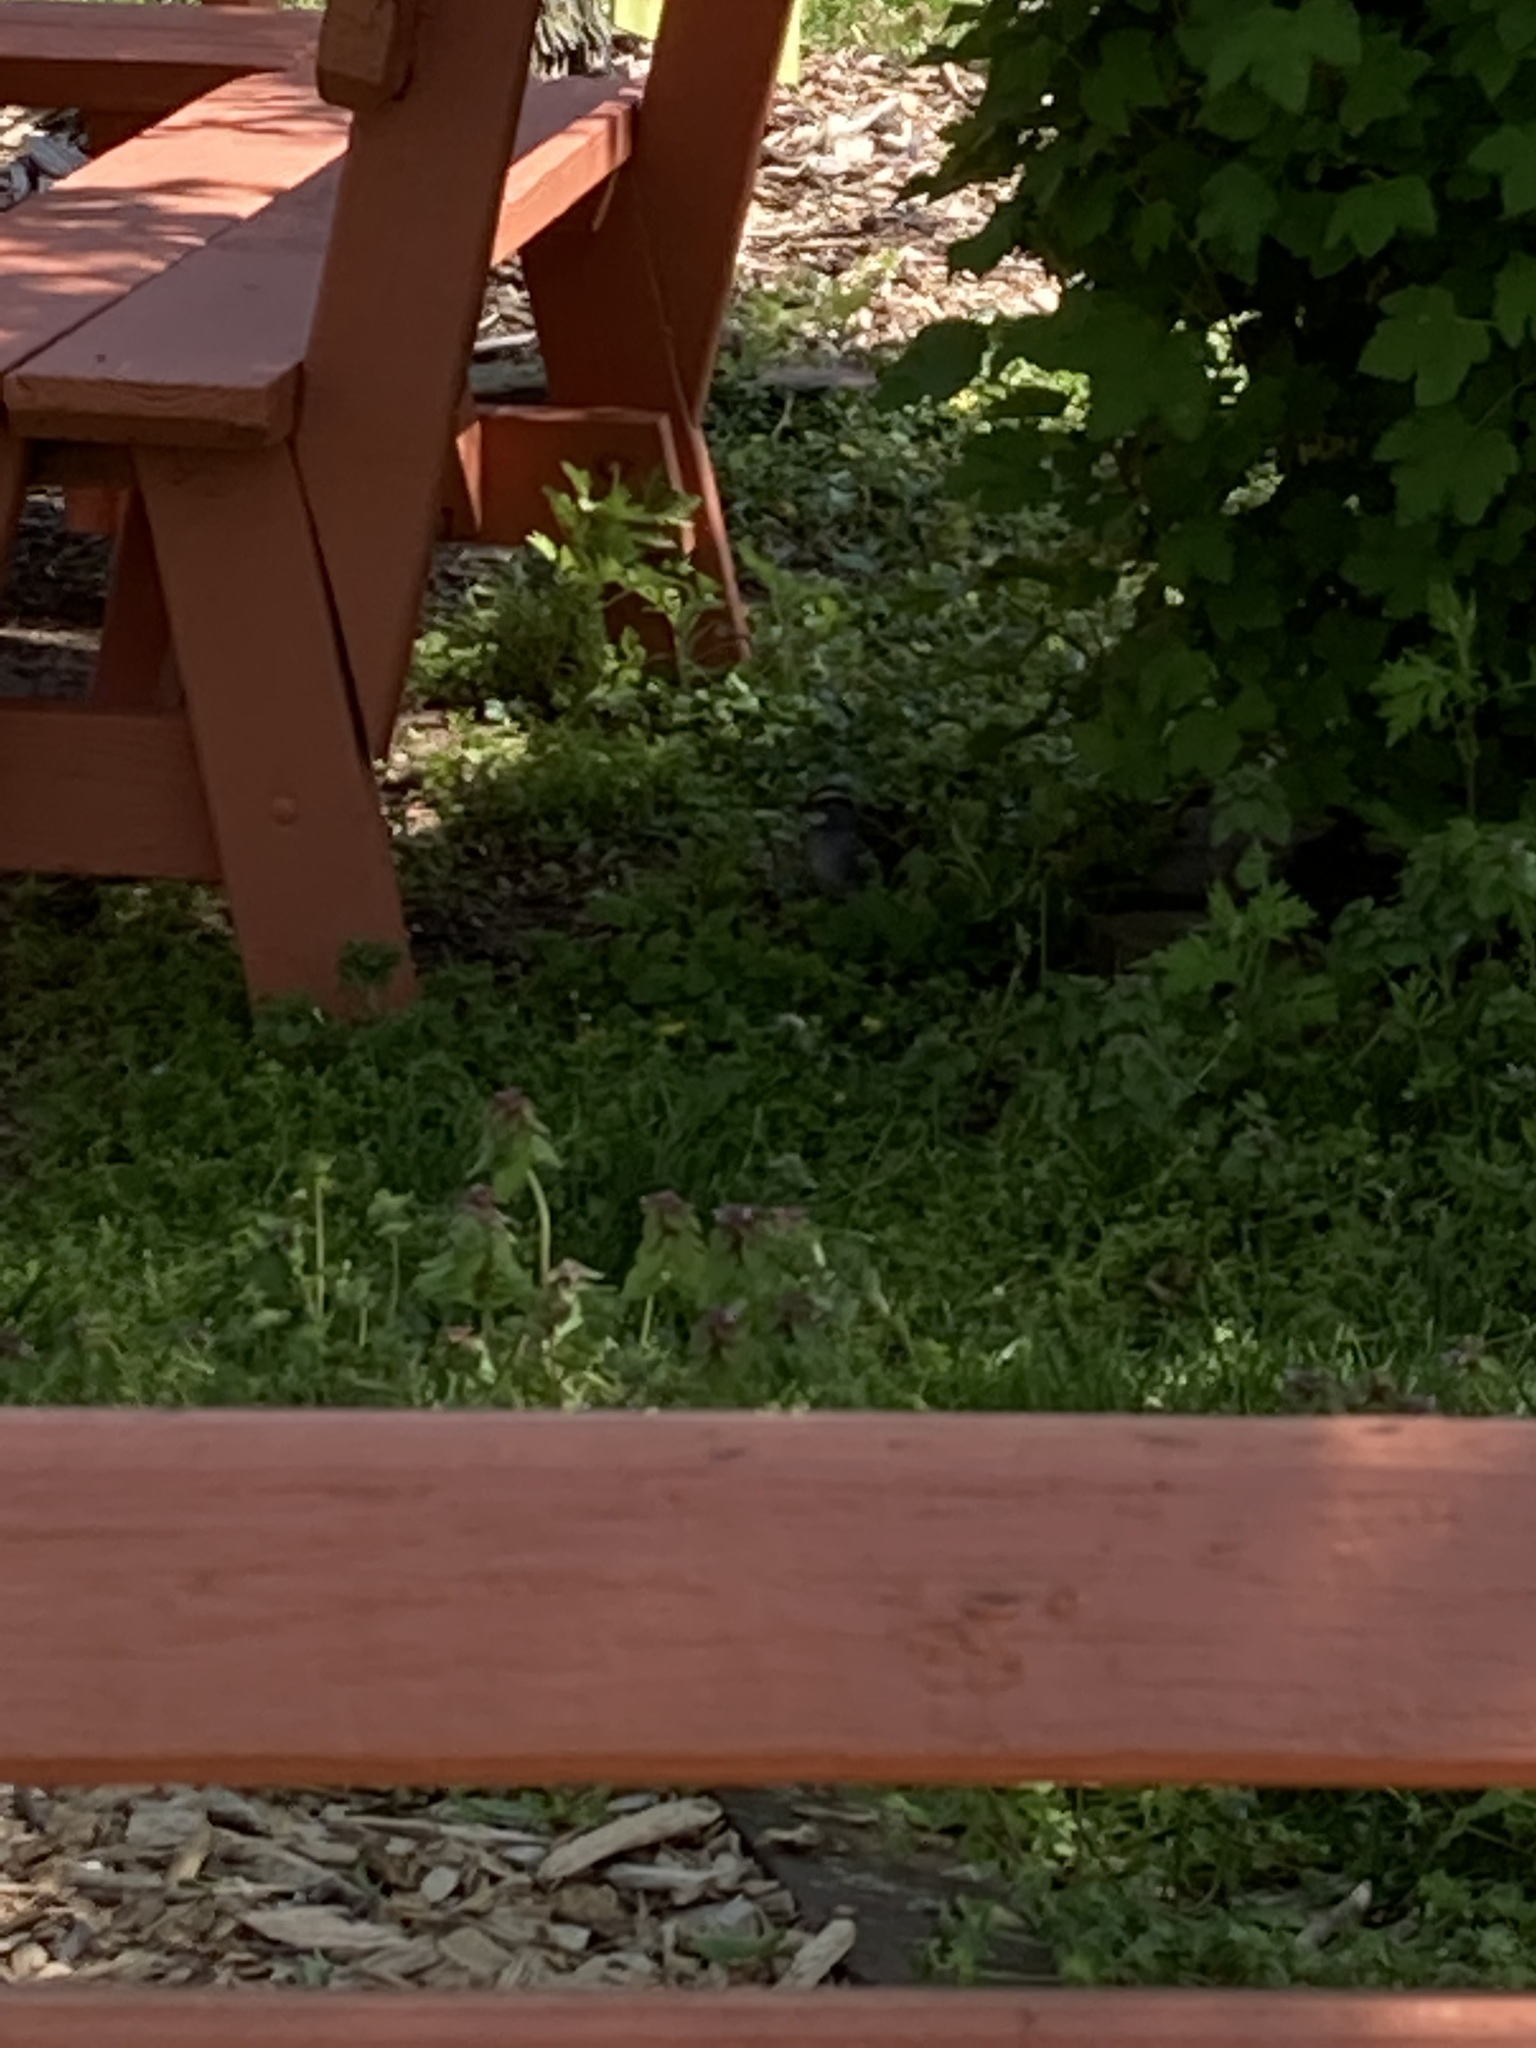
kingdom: Animalia
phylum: Chordata
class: Aves
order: Passeriformes
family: Passerellidae
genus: Zonotrichia
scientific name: Zonotrichia albicollis
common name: White-throated sparrow
